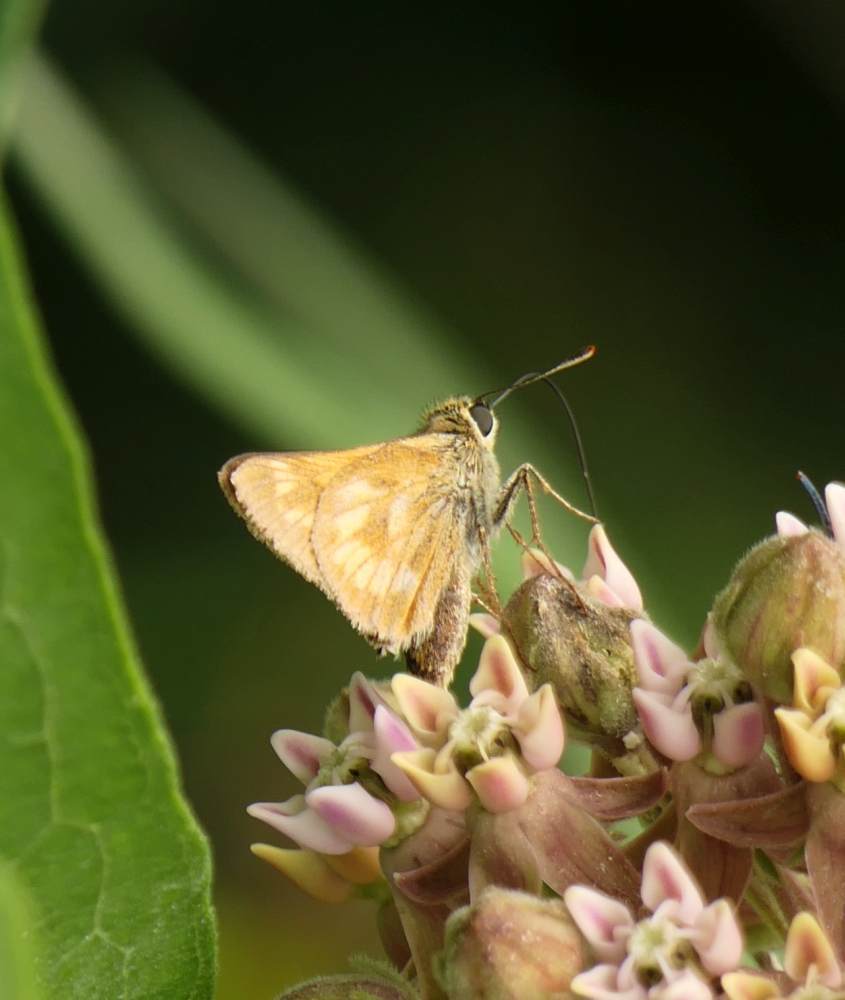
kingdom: Animalia
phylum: Arthropoda
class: Insecta
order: Lepidoptera
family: Hesperiidae
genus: Polites
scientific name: Polites mystic
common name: Long dash
